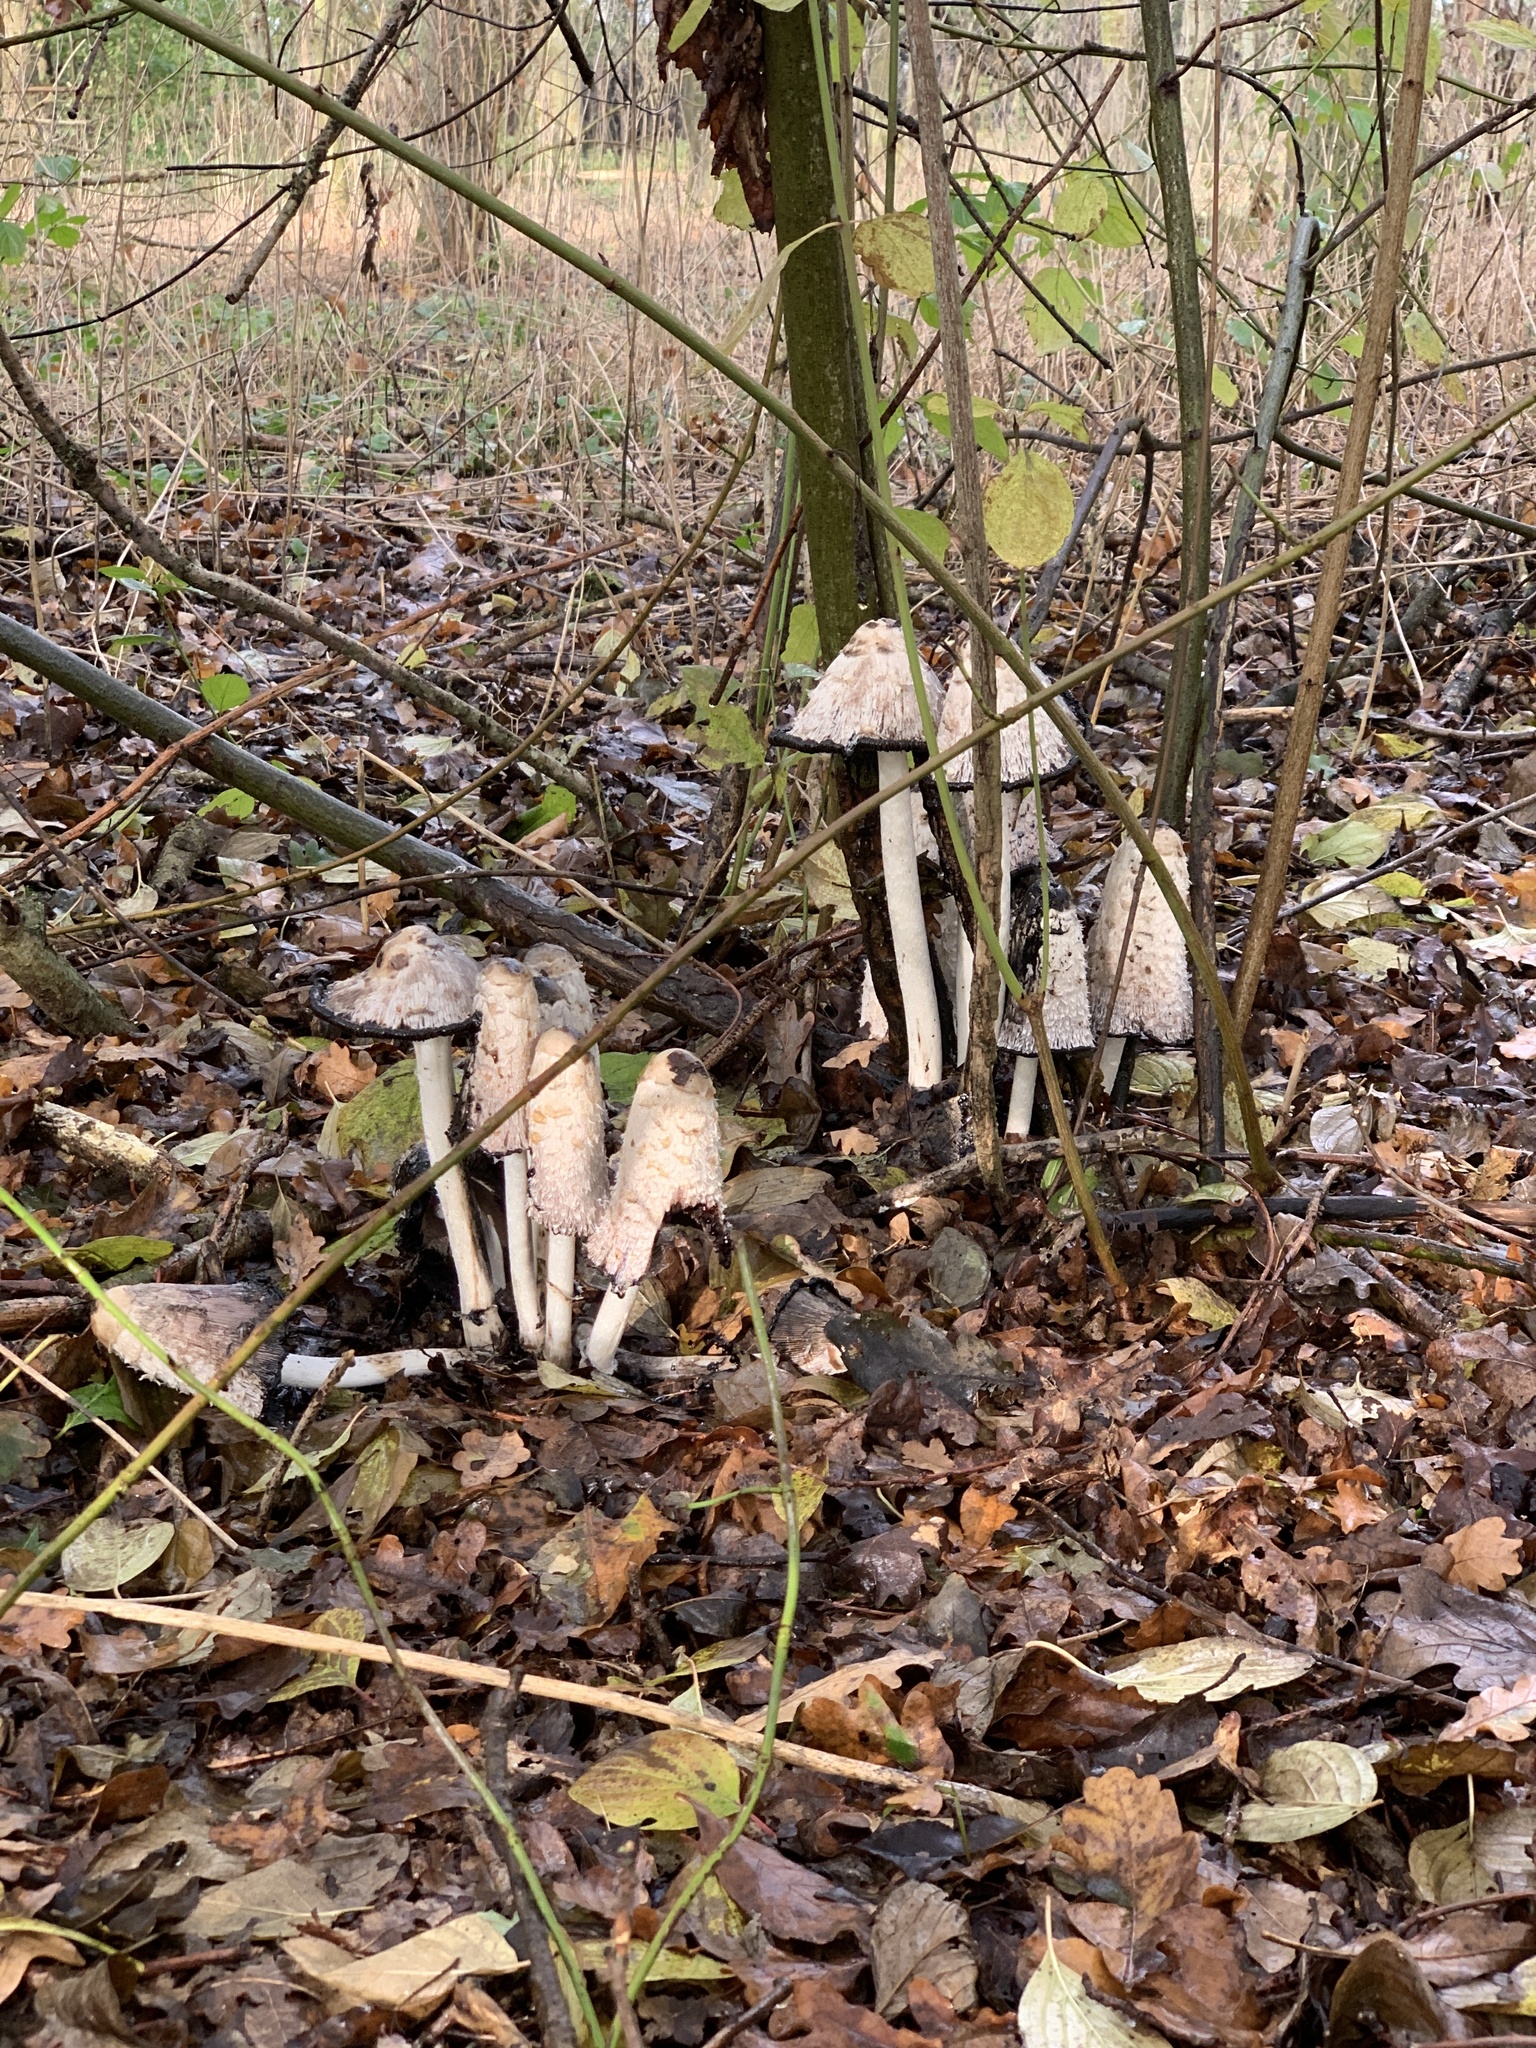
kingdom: Fungi
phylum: Basidiomycota
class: Agaricomycetes
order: Agaricales
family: Agaricaceae
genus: Coprinus
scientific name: Coprinus comatus
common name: Lawyer's wig
